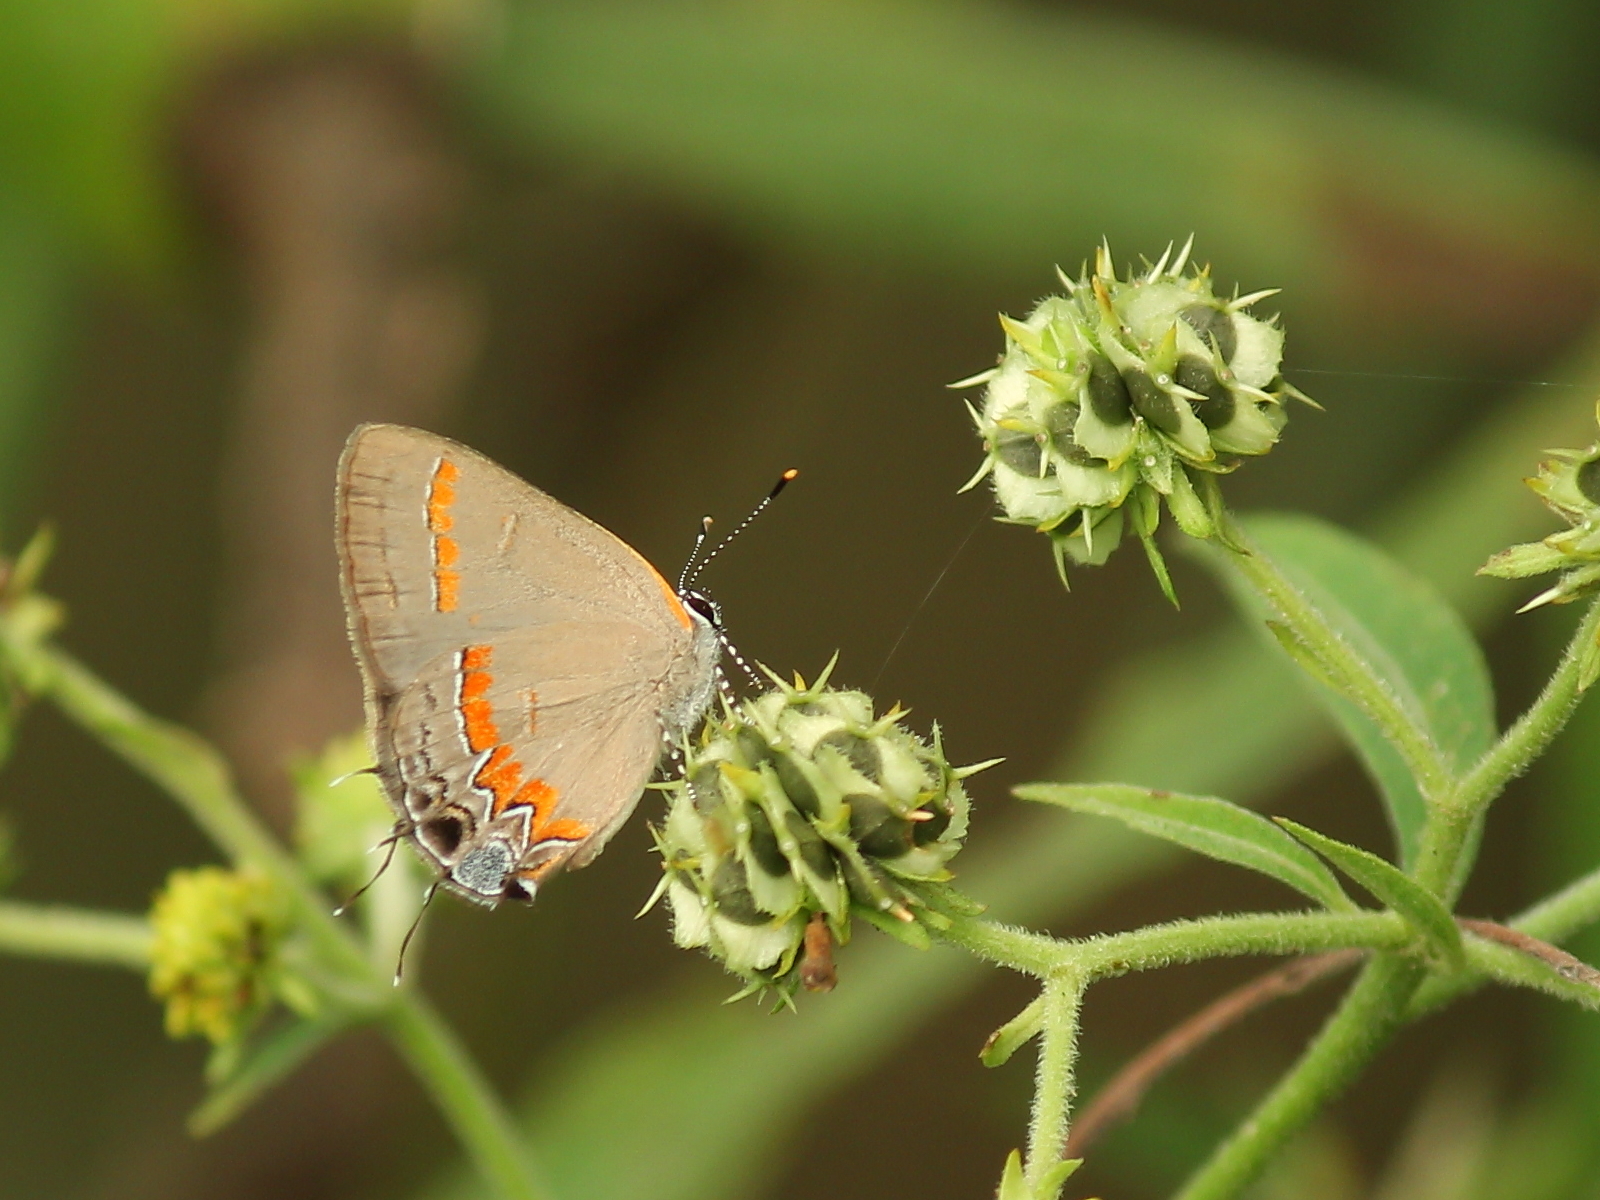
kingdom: Animalia
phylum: Arthropoda
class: Insecta
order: Lepidoptera
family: Lycaenidae
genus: Calycopis
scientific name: Calycopis cecrops
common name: Red-banded hairstreak
